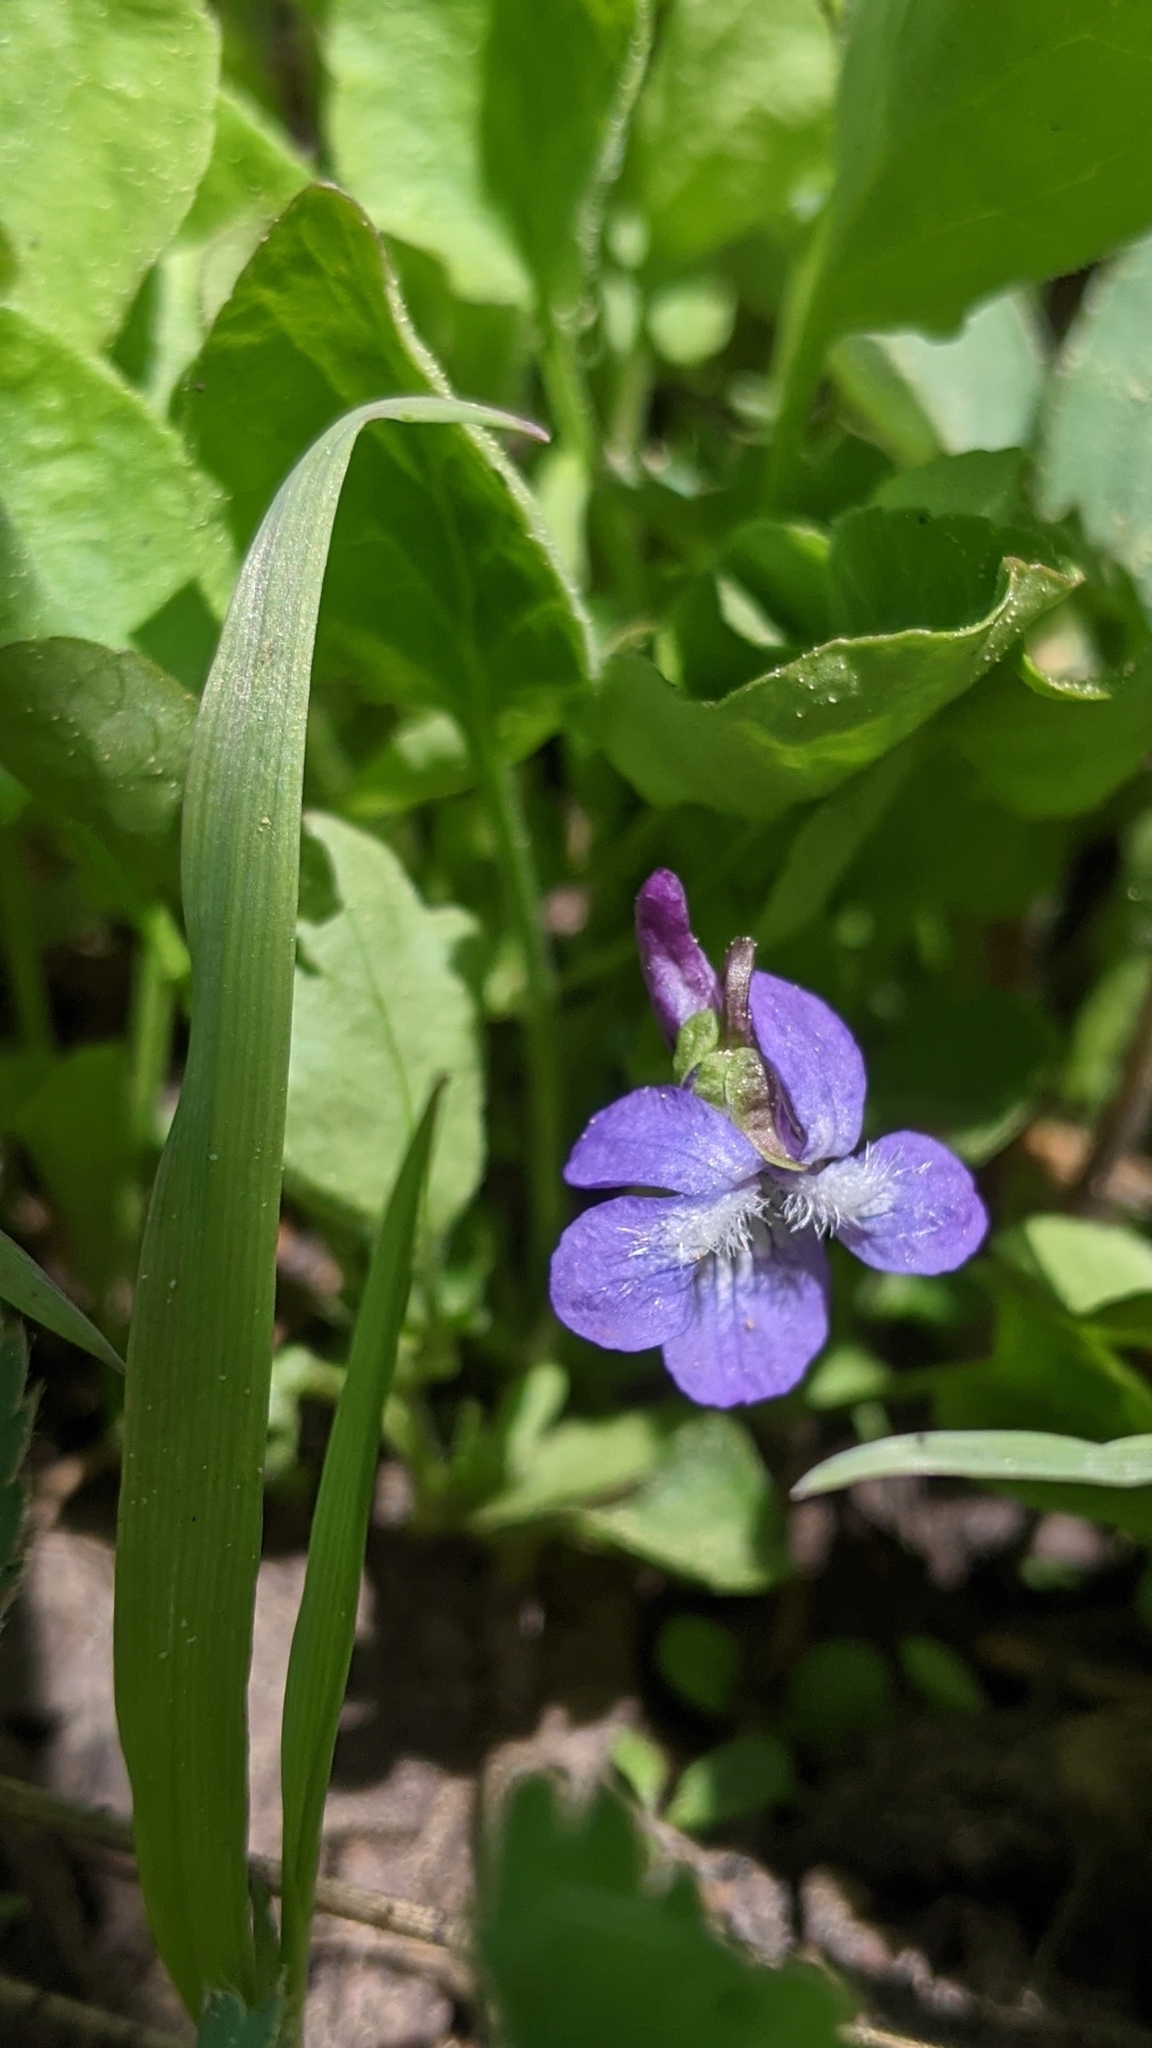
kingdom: Plantae
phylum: Tracheophyta
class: Magnoliopsida
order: Malpighiales
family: Violaceae
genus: Viola
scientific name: Viola adunca
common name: Sand violet
